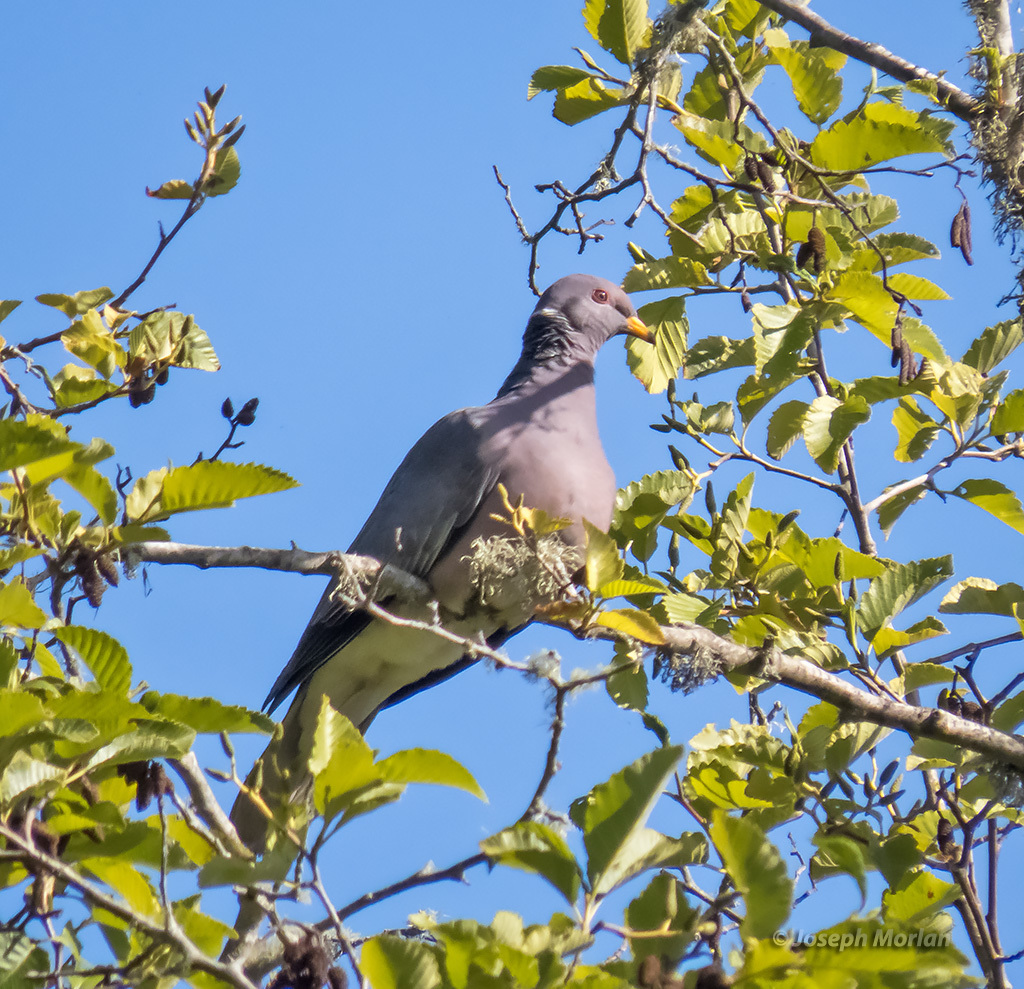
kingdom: Animalia
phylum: Chordata
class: Aves
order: Columbiformes
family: Columbidae
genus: Patagioenas
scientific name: Patagioenas fasciata
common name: Band-tailed pigeon
